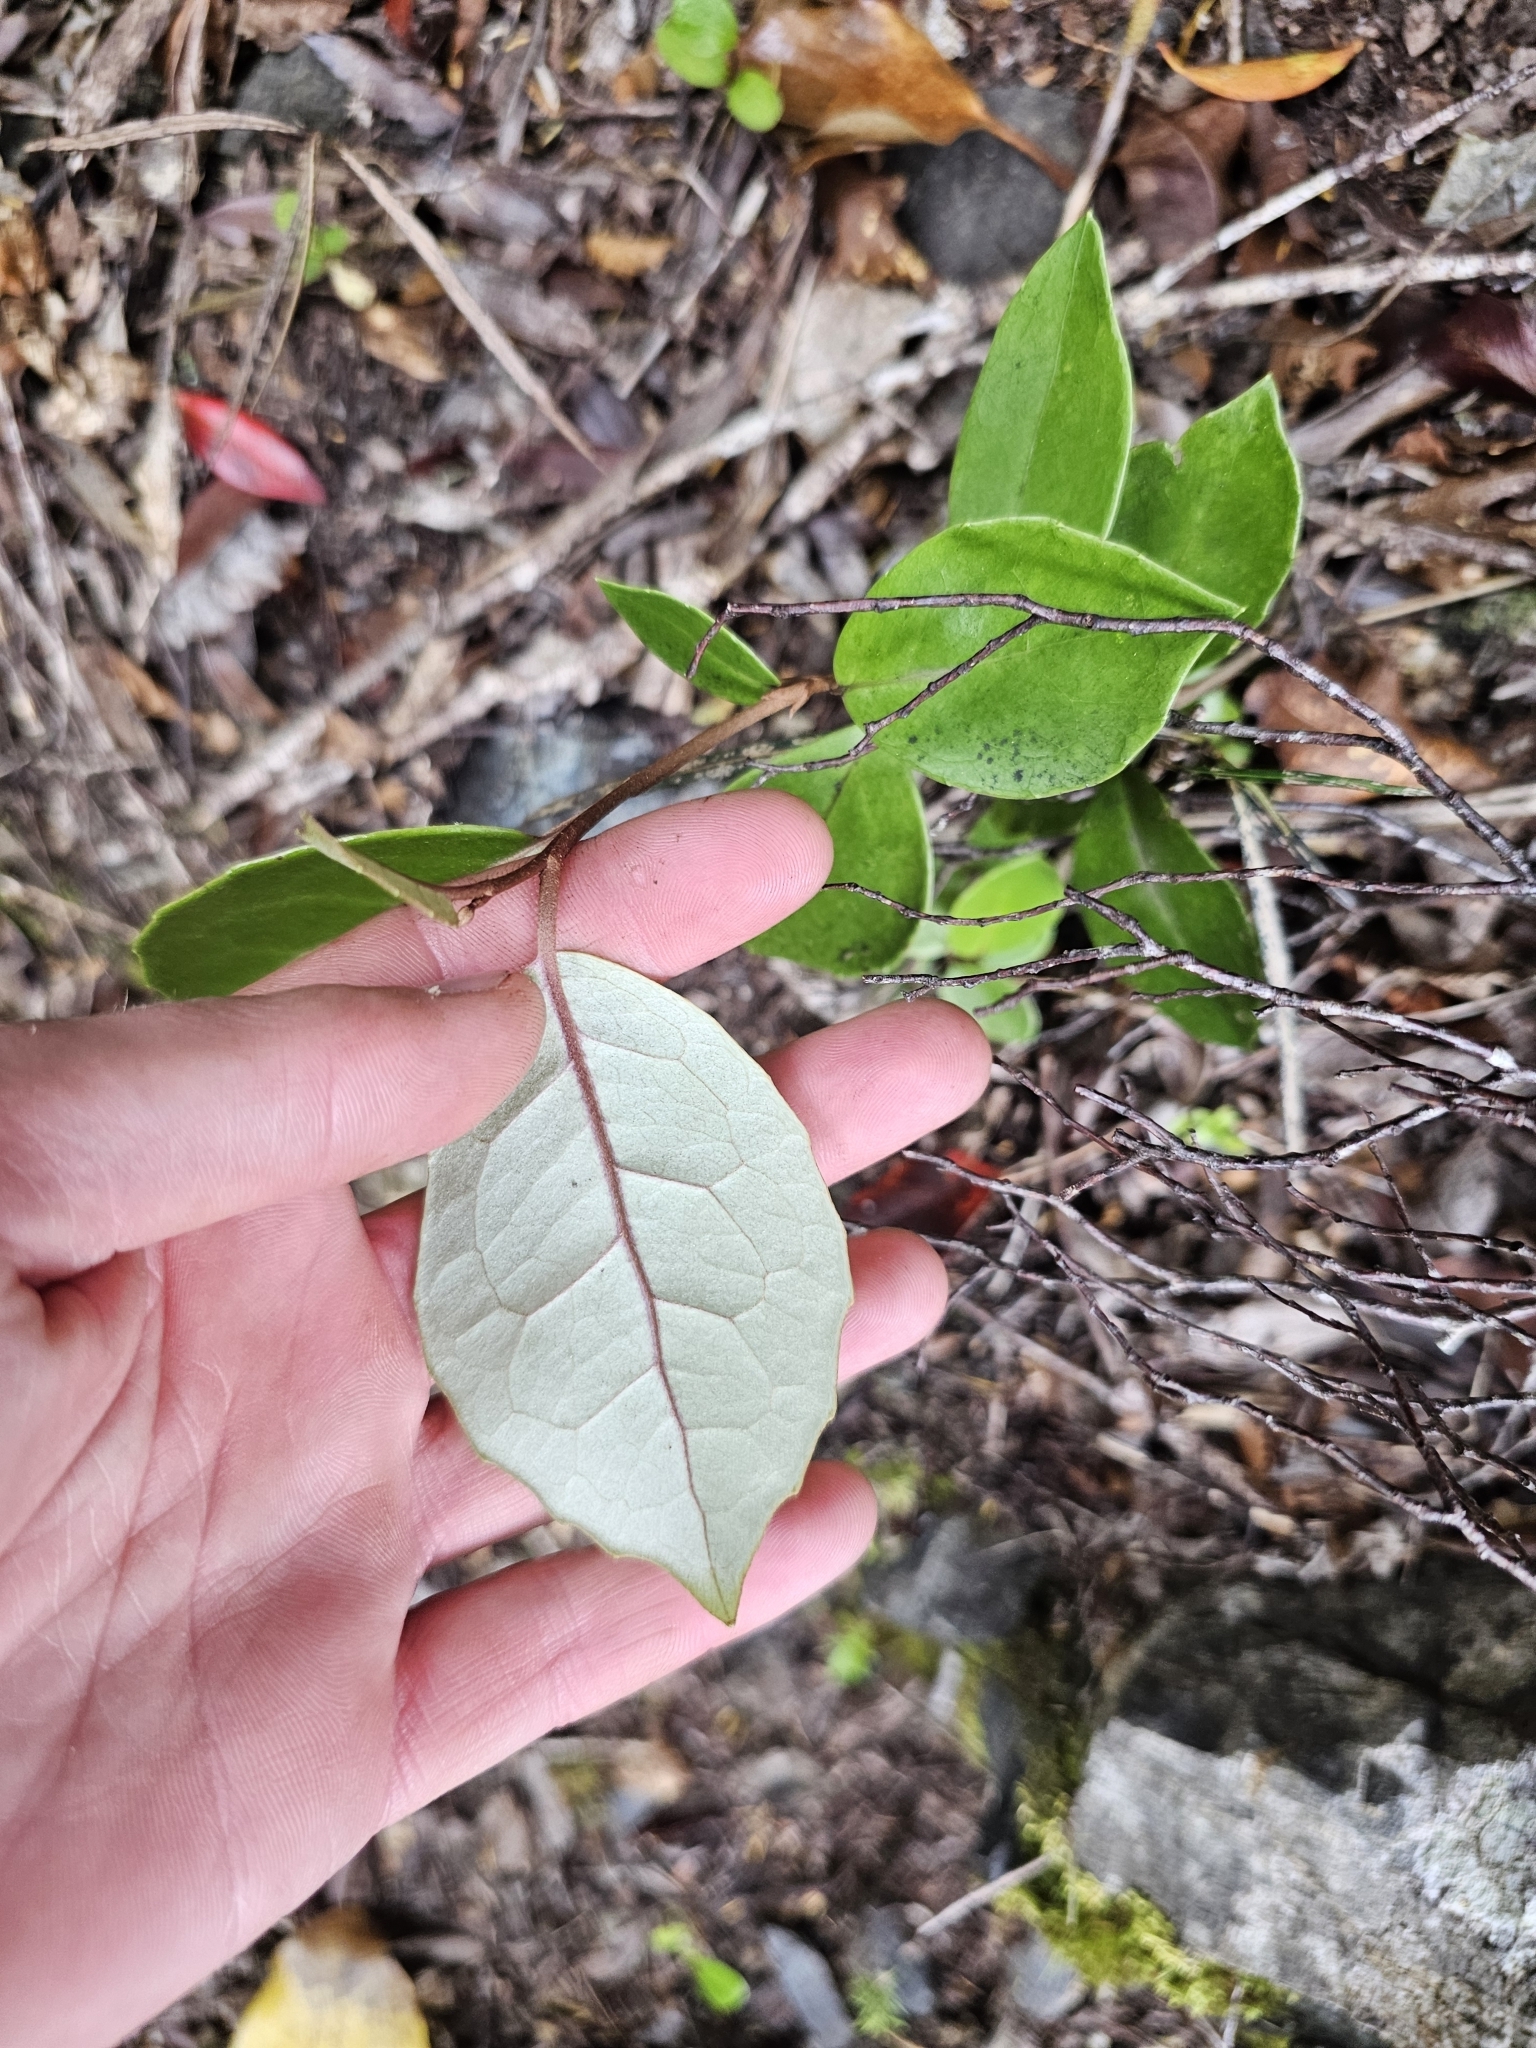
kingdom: Plantae
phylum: Tracheophyta
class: Magnoliopsida
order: Asterales
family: Asteraceae
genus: Olearia
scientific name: Olearia arborescens
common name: Glossy tree daisy
